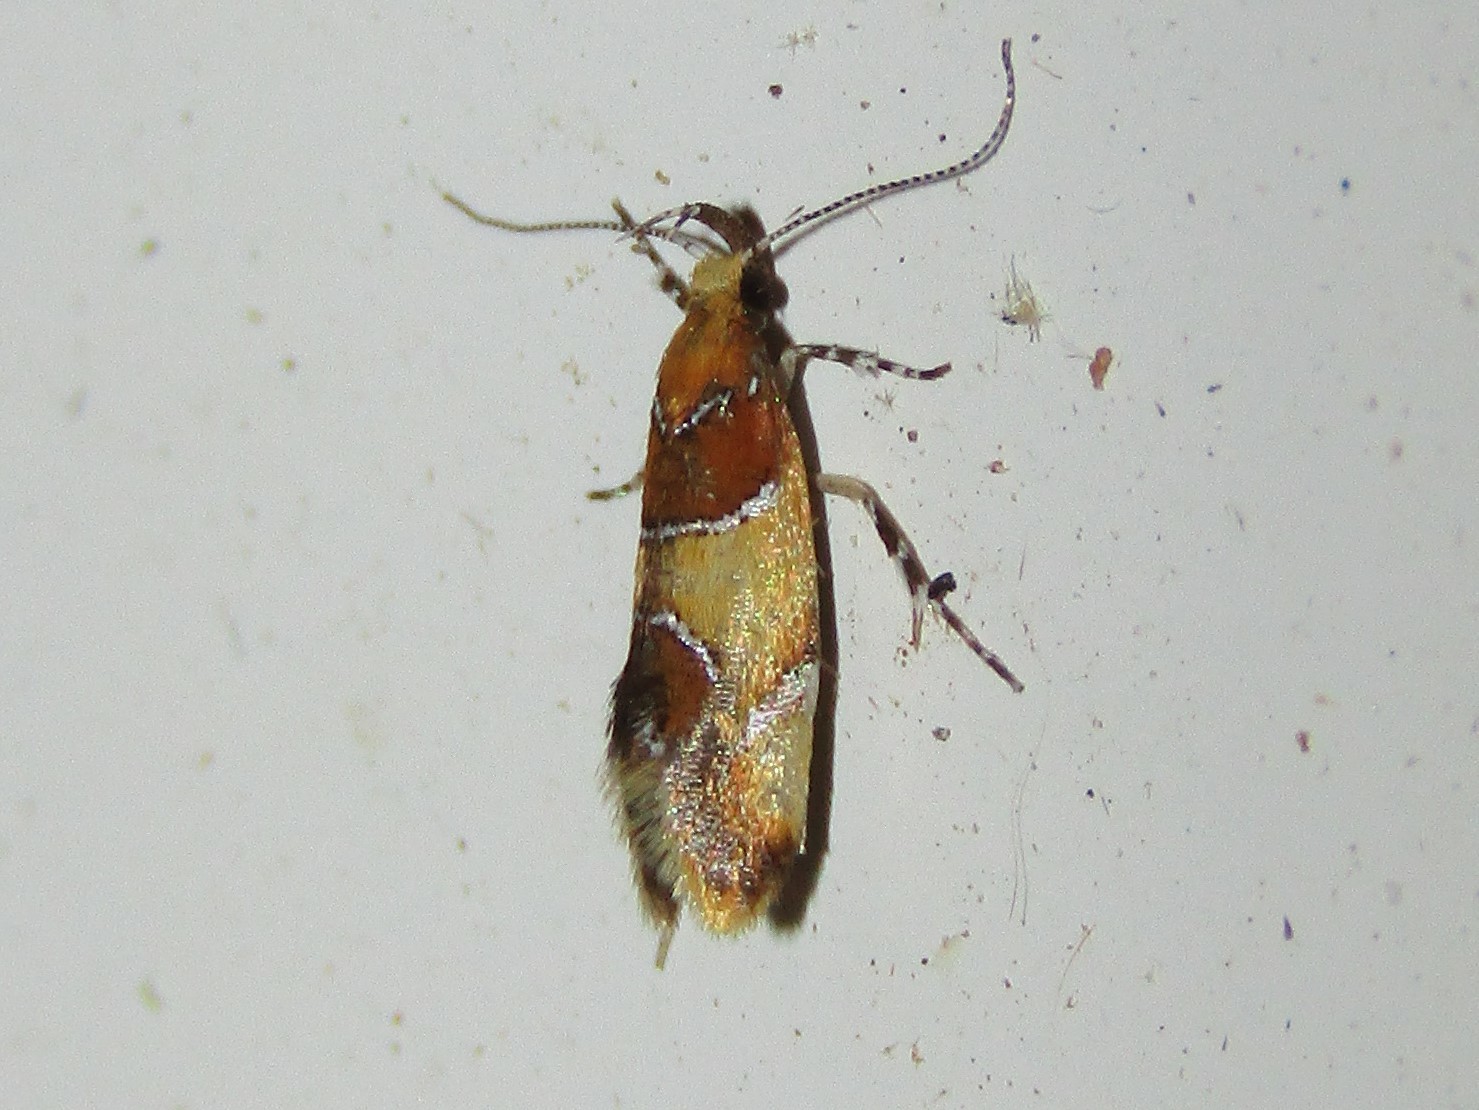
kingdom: Animalia
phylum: Arthropoda
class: Insecta
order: Lepidoptera
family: Oecophoridae
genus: Callima
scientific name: Callima argenticinctella
